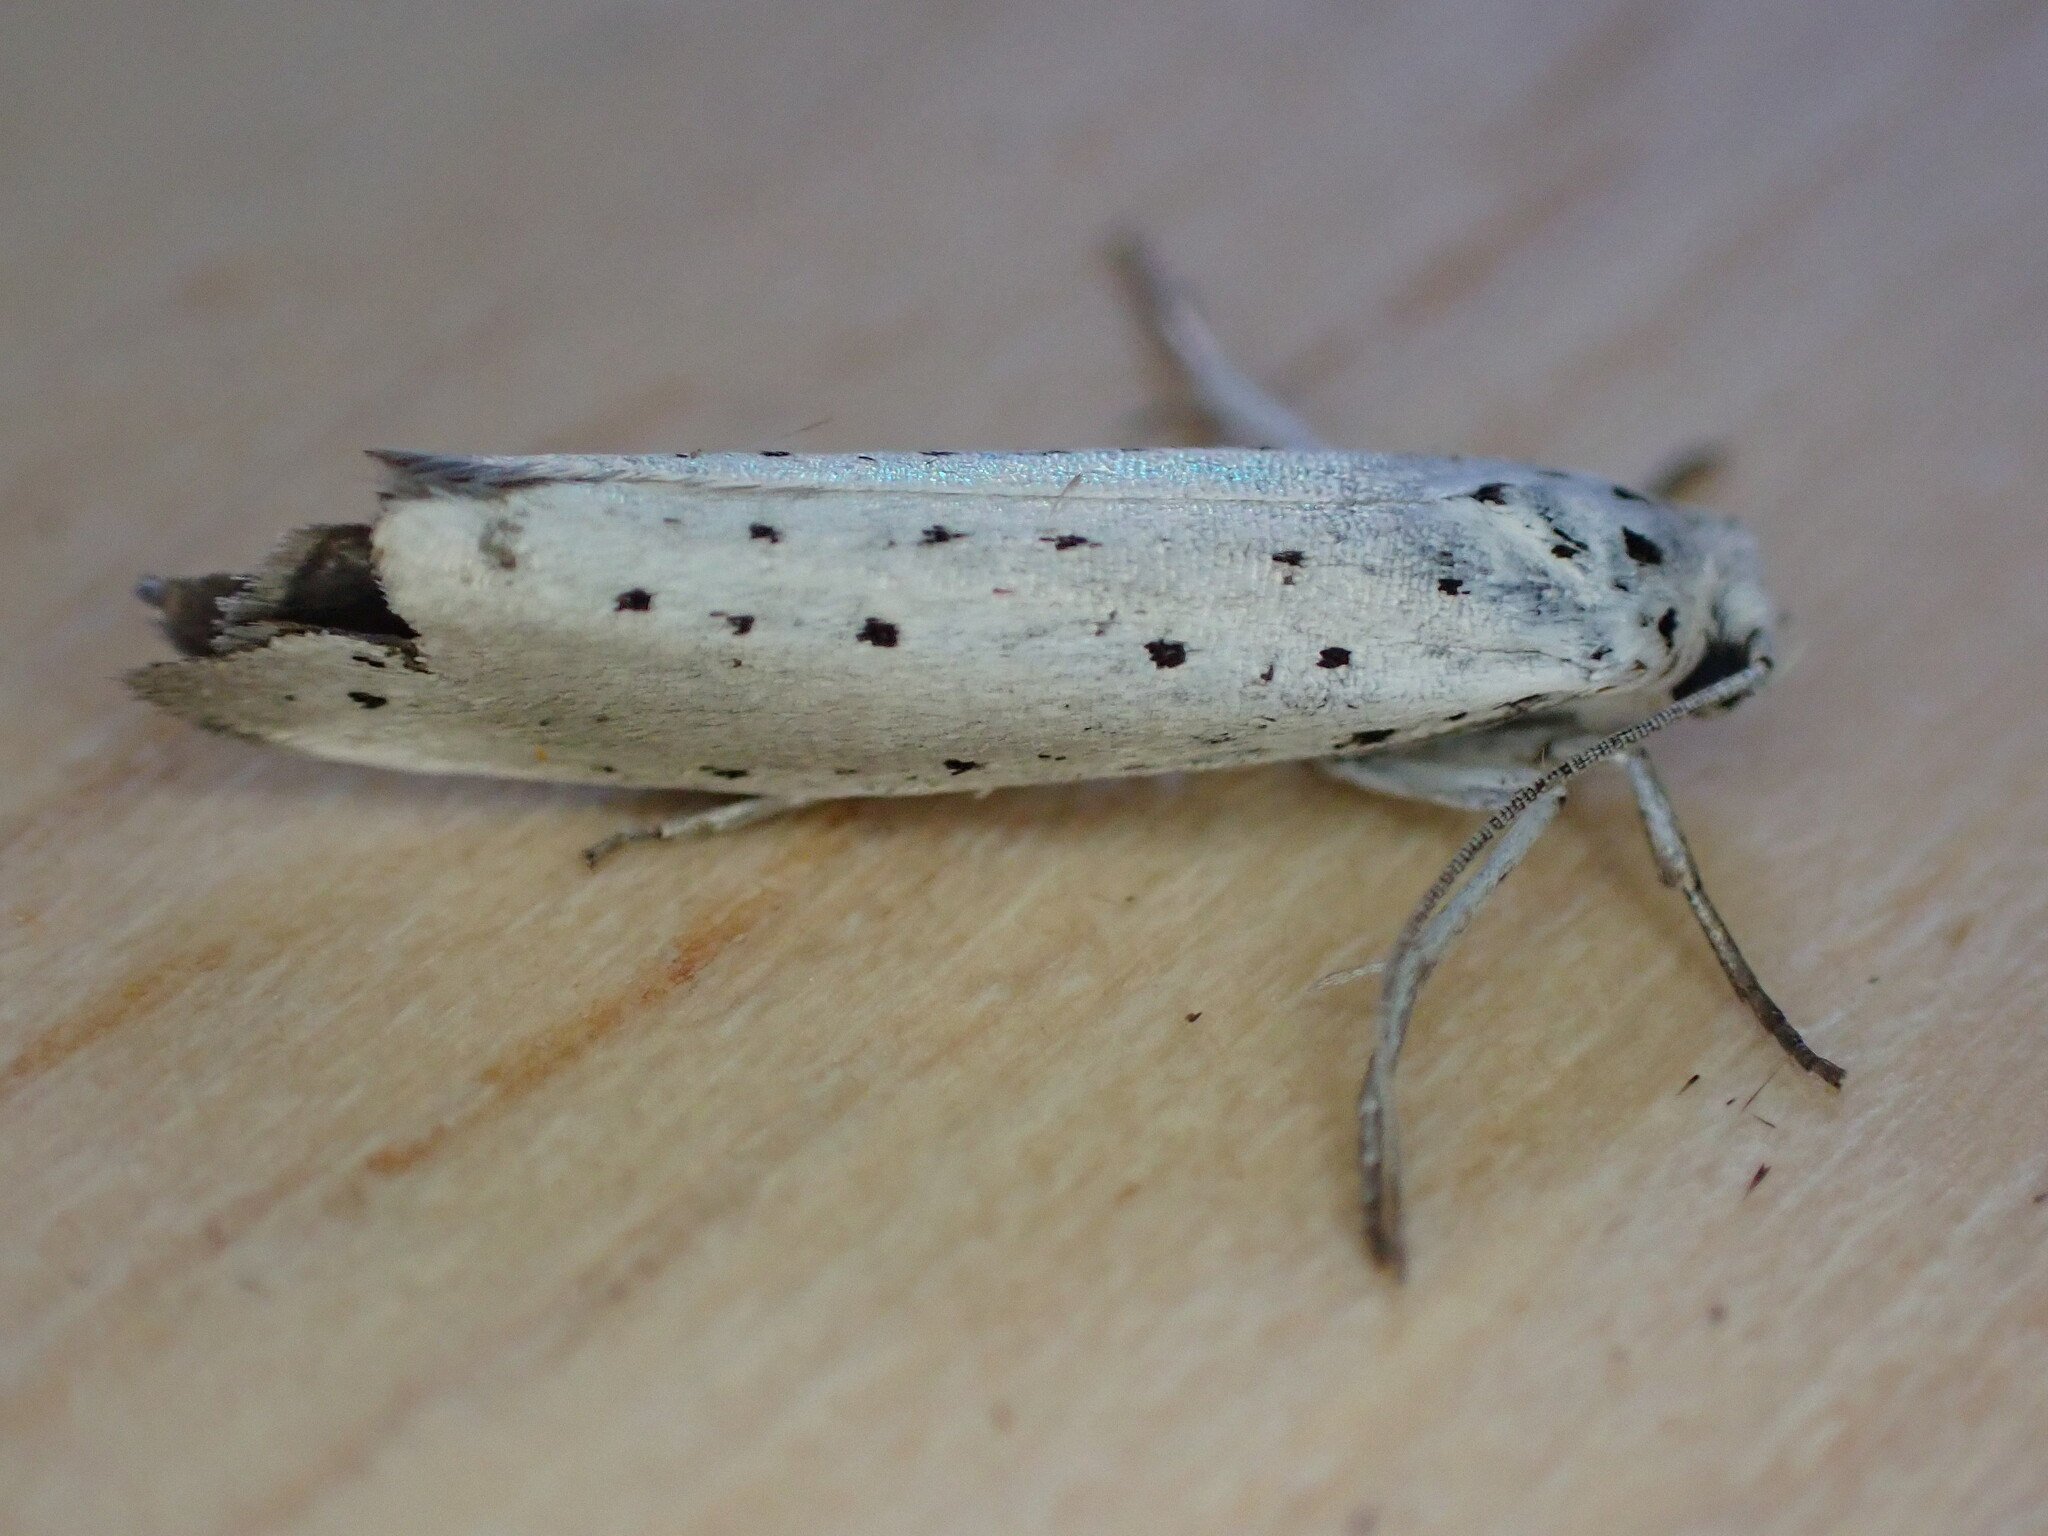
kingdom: Animalia
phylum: Arthropoda
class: Insecta
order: Lepidoptera
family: Yponomeutidae
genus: Yponomeuta
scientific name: Yponomeuta padella
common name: Orchard ermine
